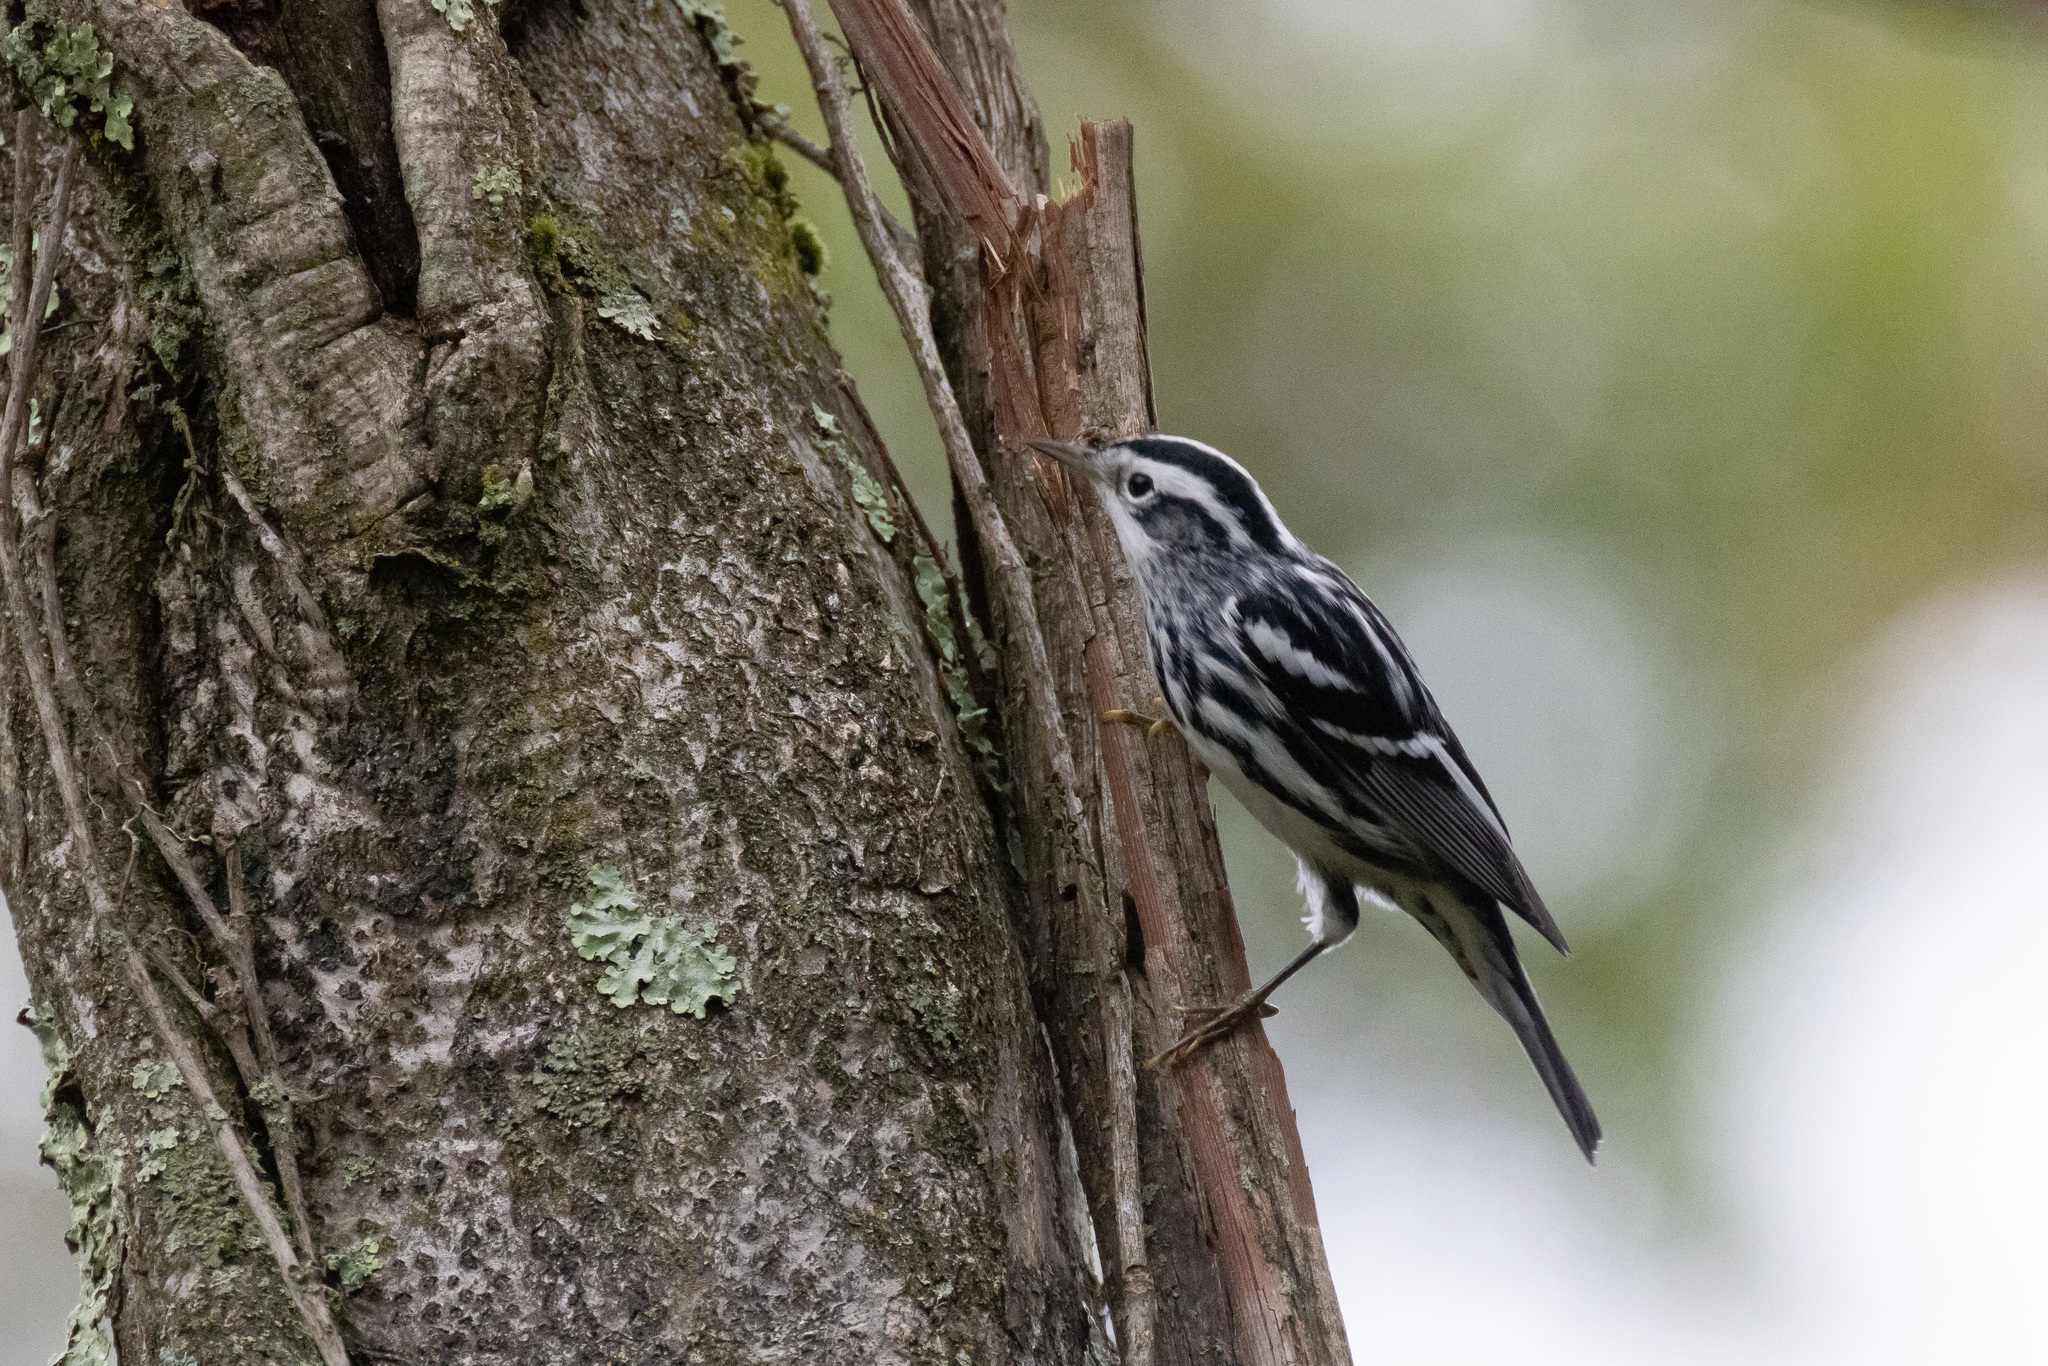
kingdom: Animalia
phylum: Chordata
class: Aves
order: Passeriformes
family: Parulidae
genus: Mniotilta
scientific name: Mniotilta varia
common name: Black-and-white warbler
